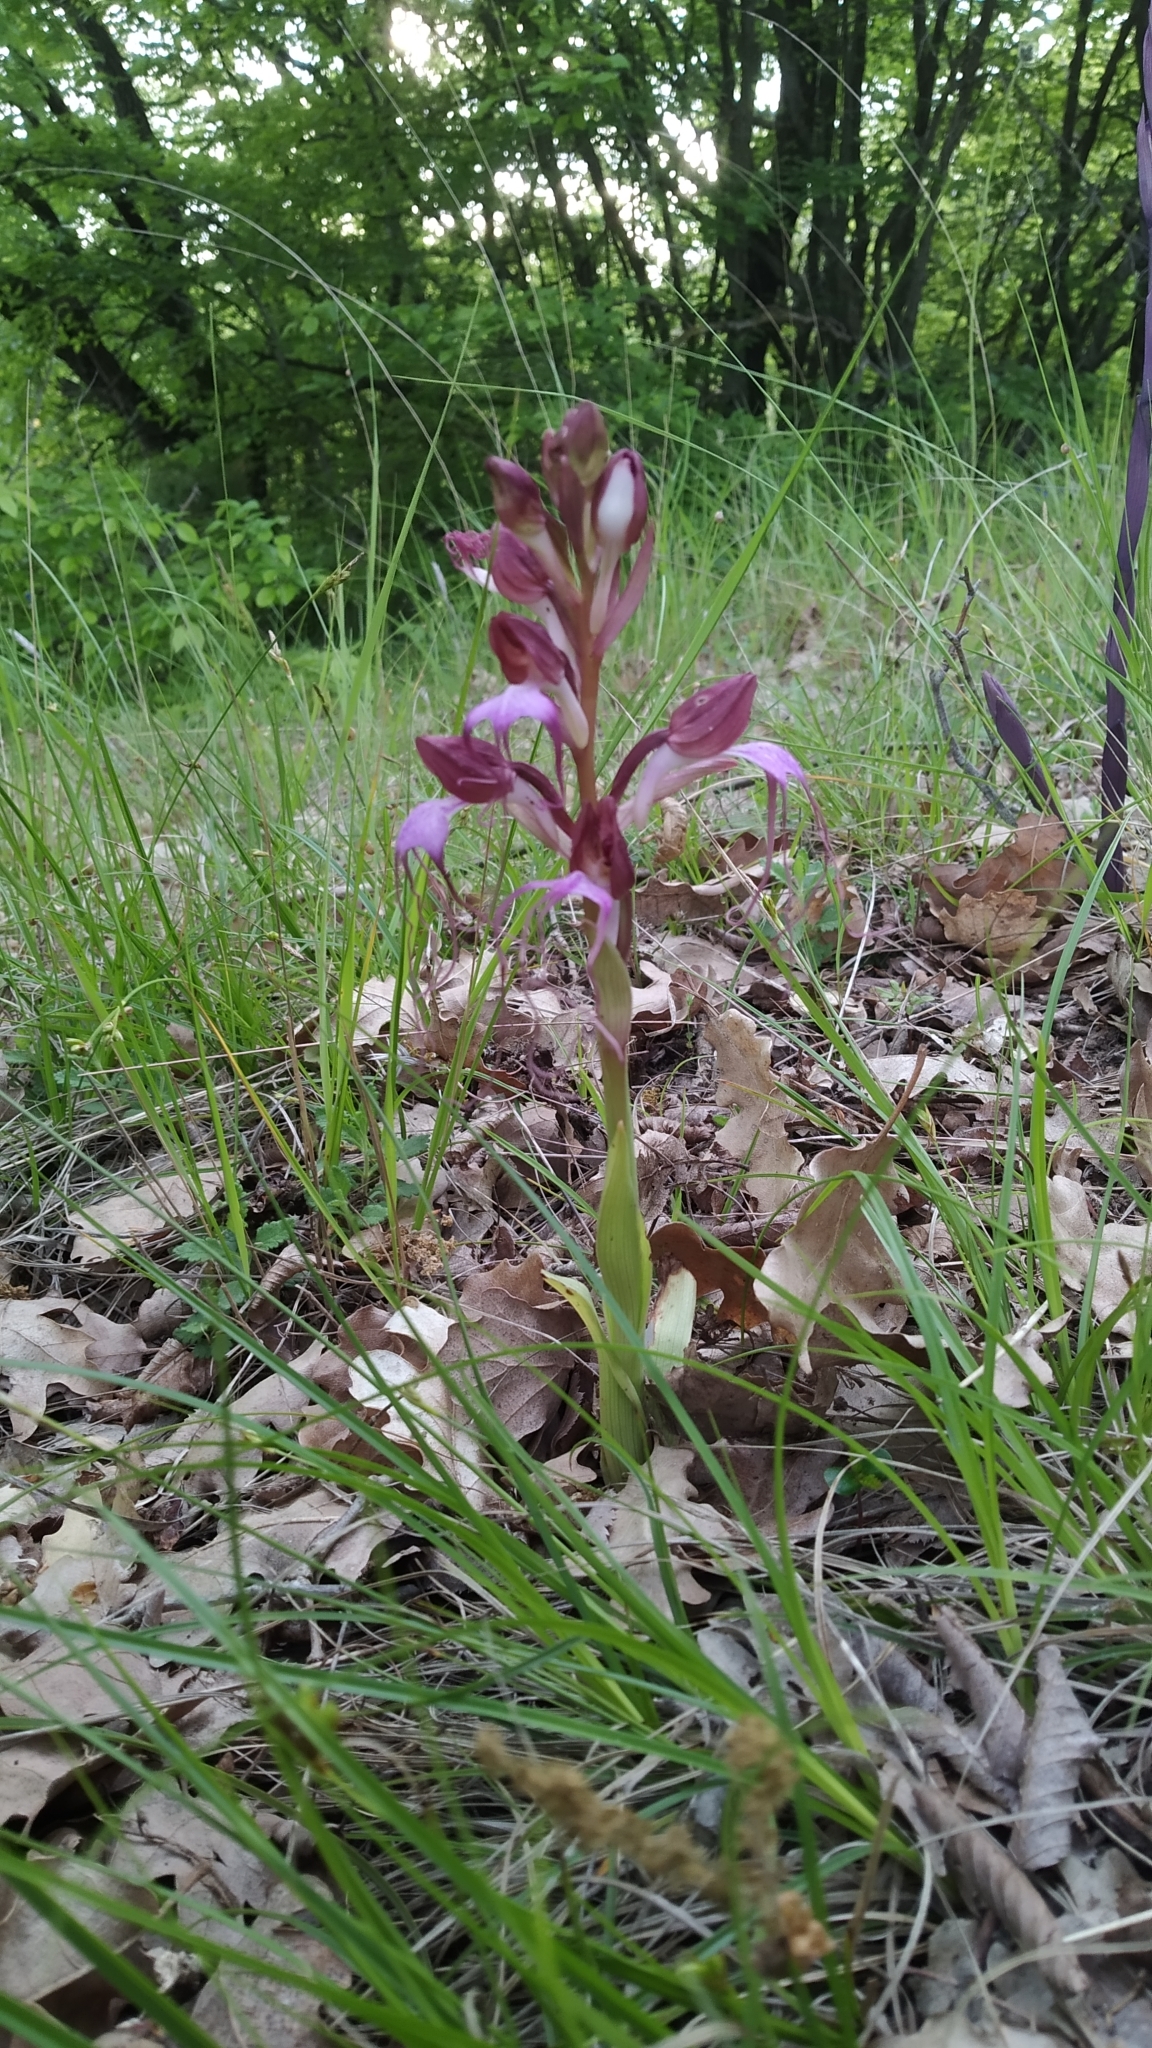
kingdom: Plantae
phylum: Tracheophyta
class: Liliopsida
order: Asparagales
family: Orchidaceae
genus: Himantoglossum
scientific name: Himantoglossum comperianum
